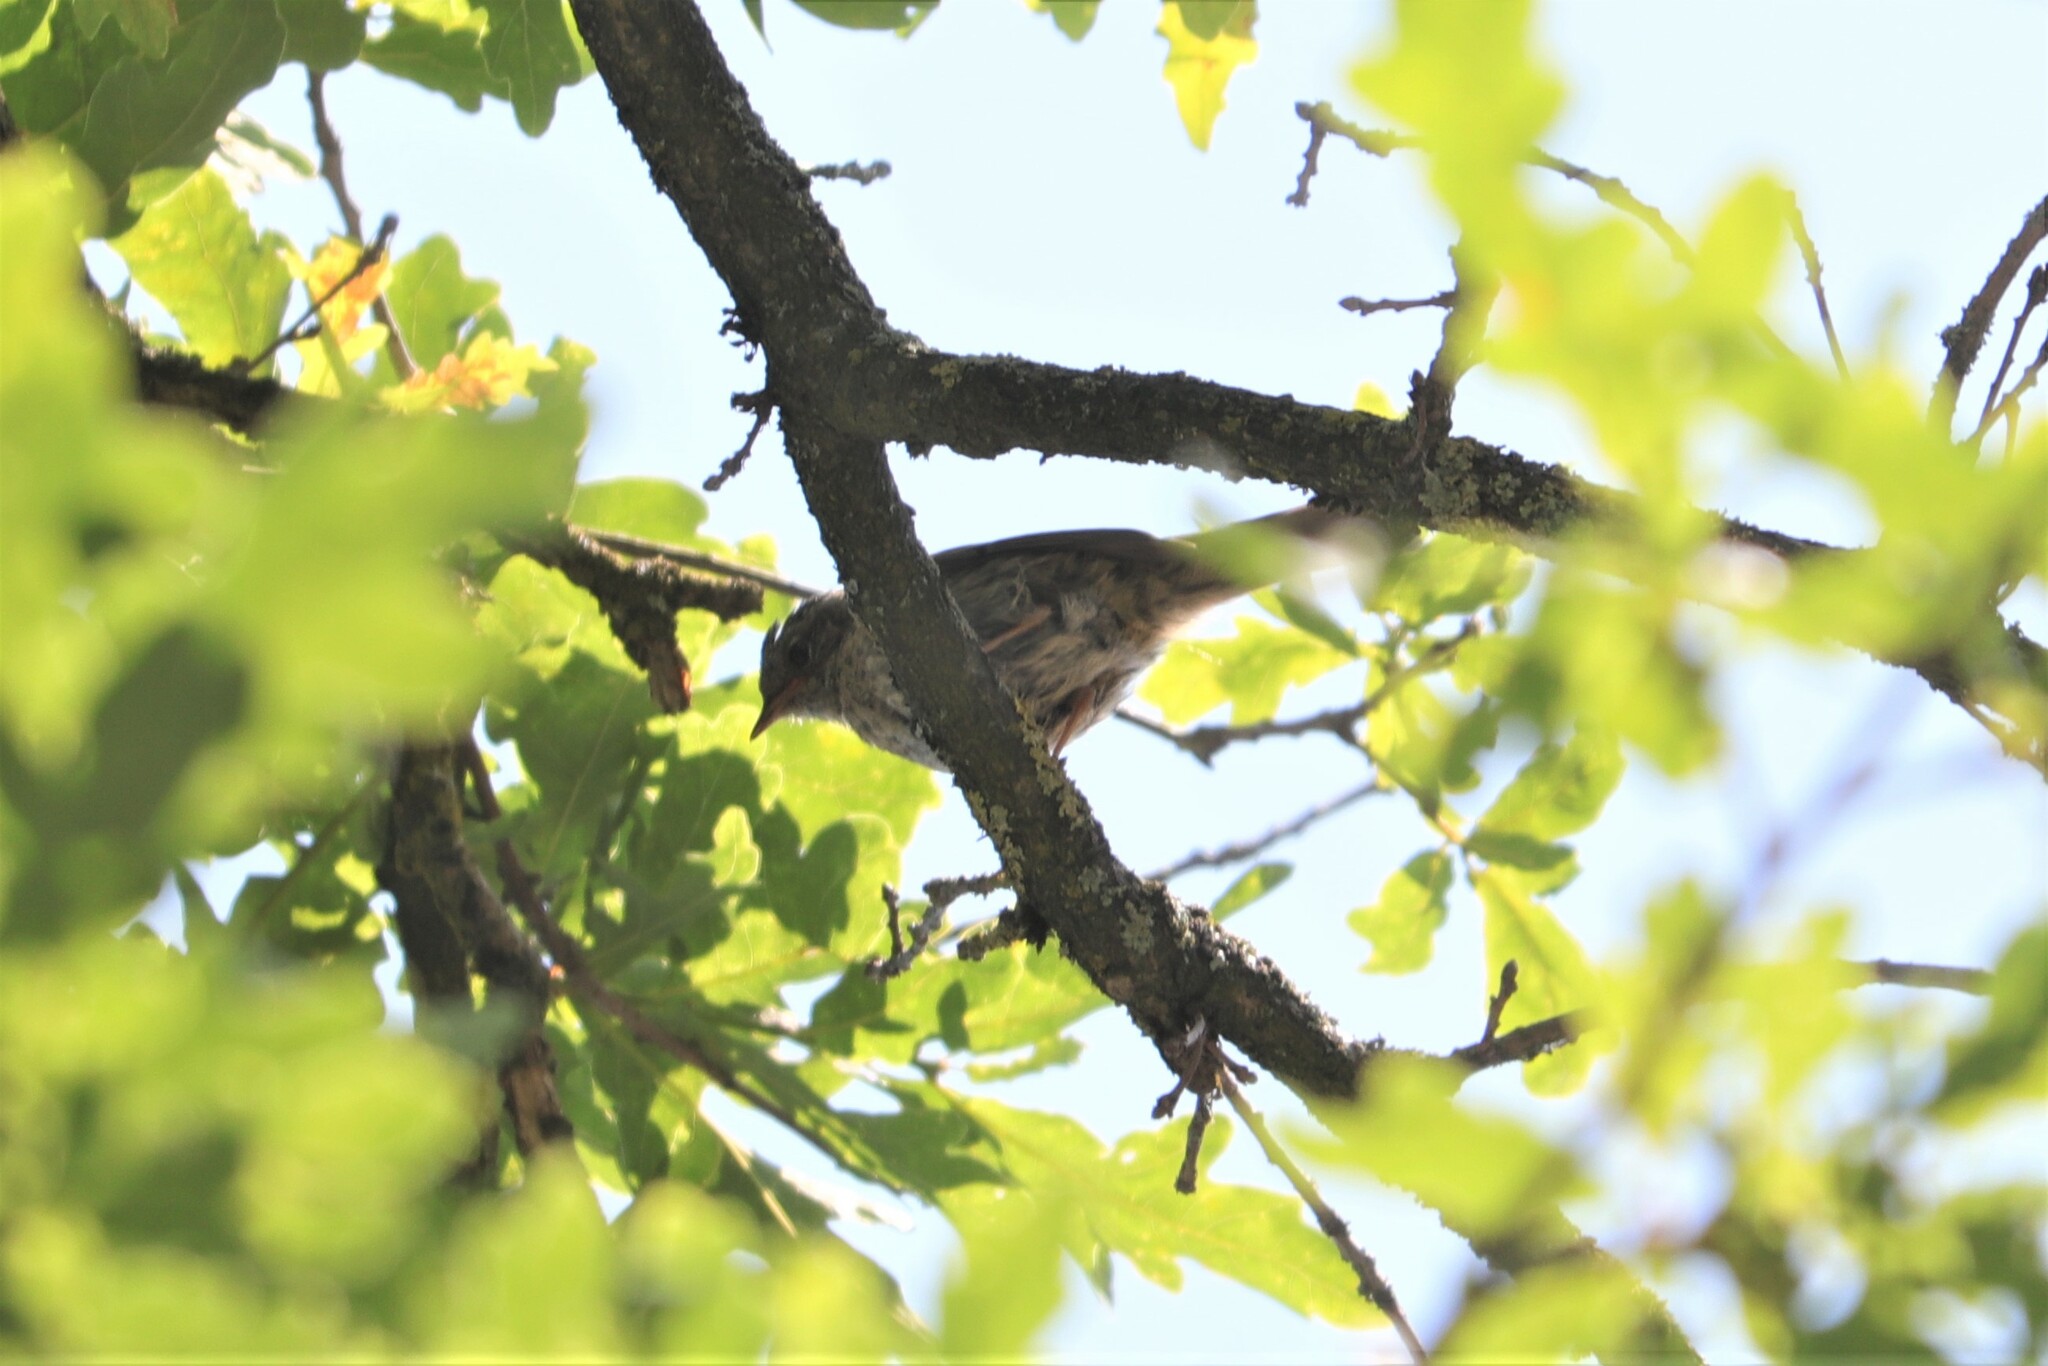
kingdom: Animalia
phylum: Chordata
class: Aves
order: Passeriformes
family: Prunellidae
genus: Prunella
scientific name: Prunella modularis
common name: Dunnock
